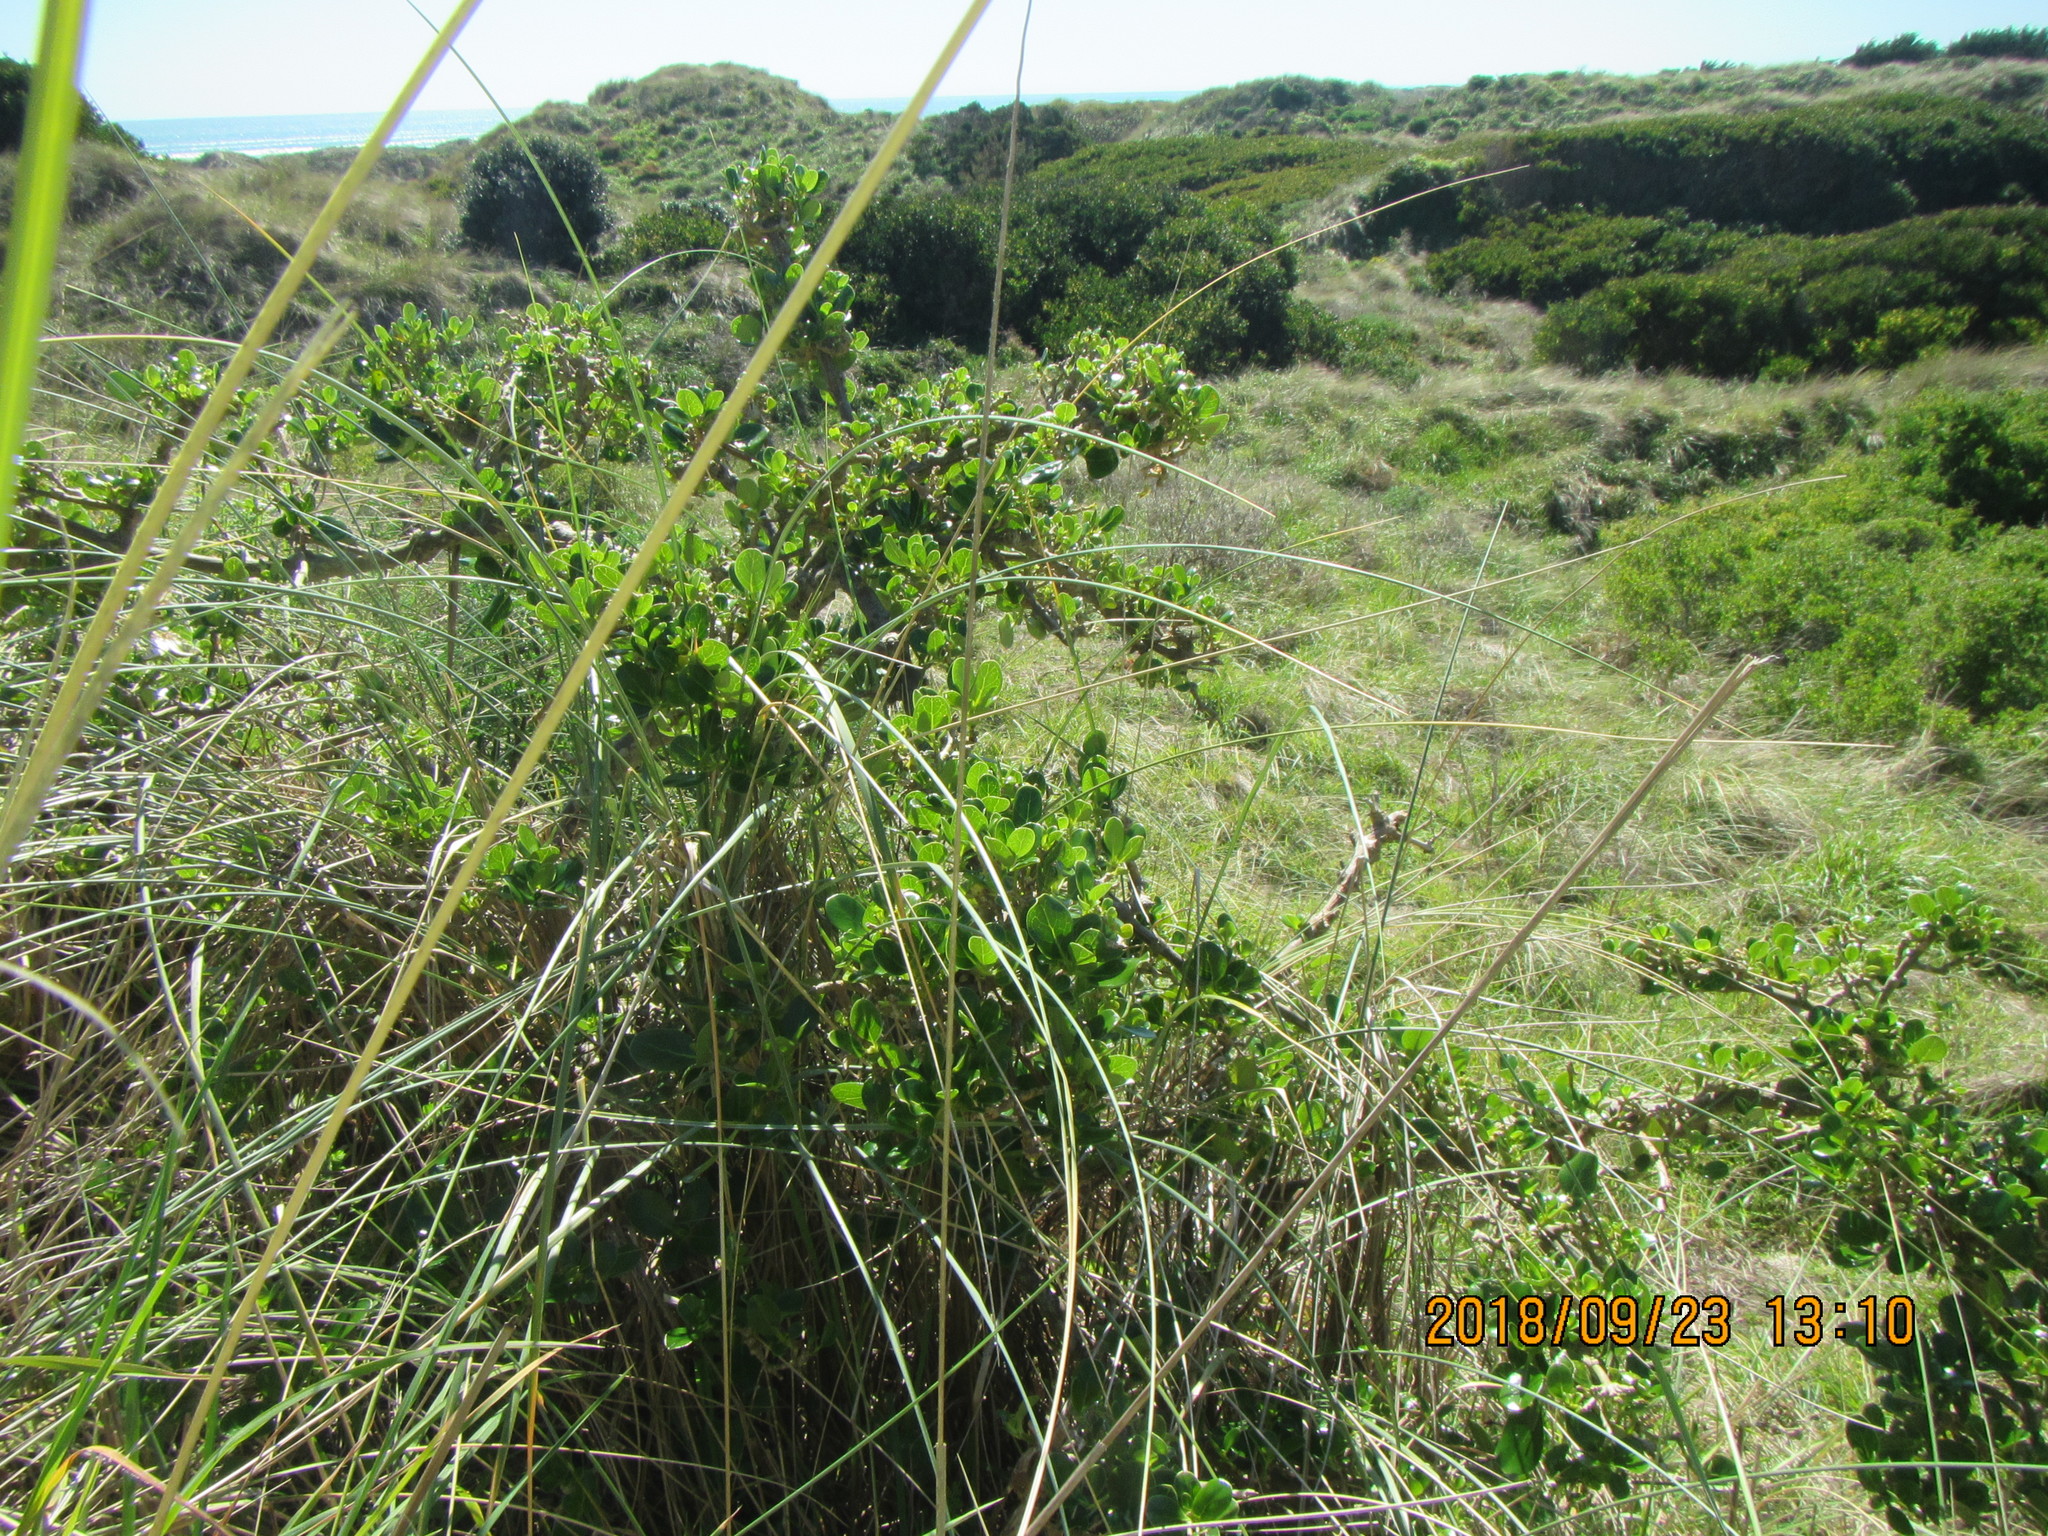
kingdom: Plantae
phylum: Tracheophyta
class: Magnoliopsida
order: Gentianales
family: Rubiaceae
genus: Coprosma
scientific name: Coprosma repens
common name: Tree bedstraw
